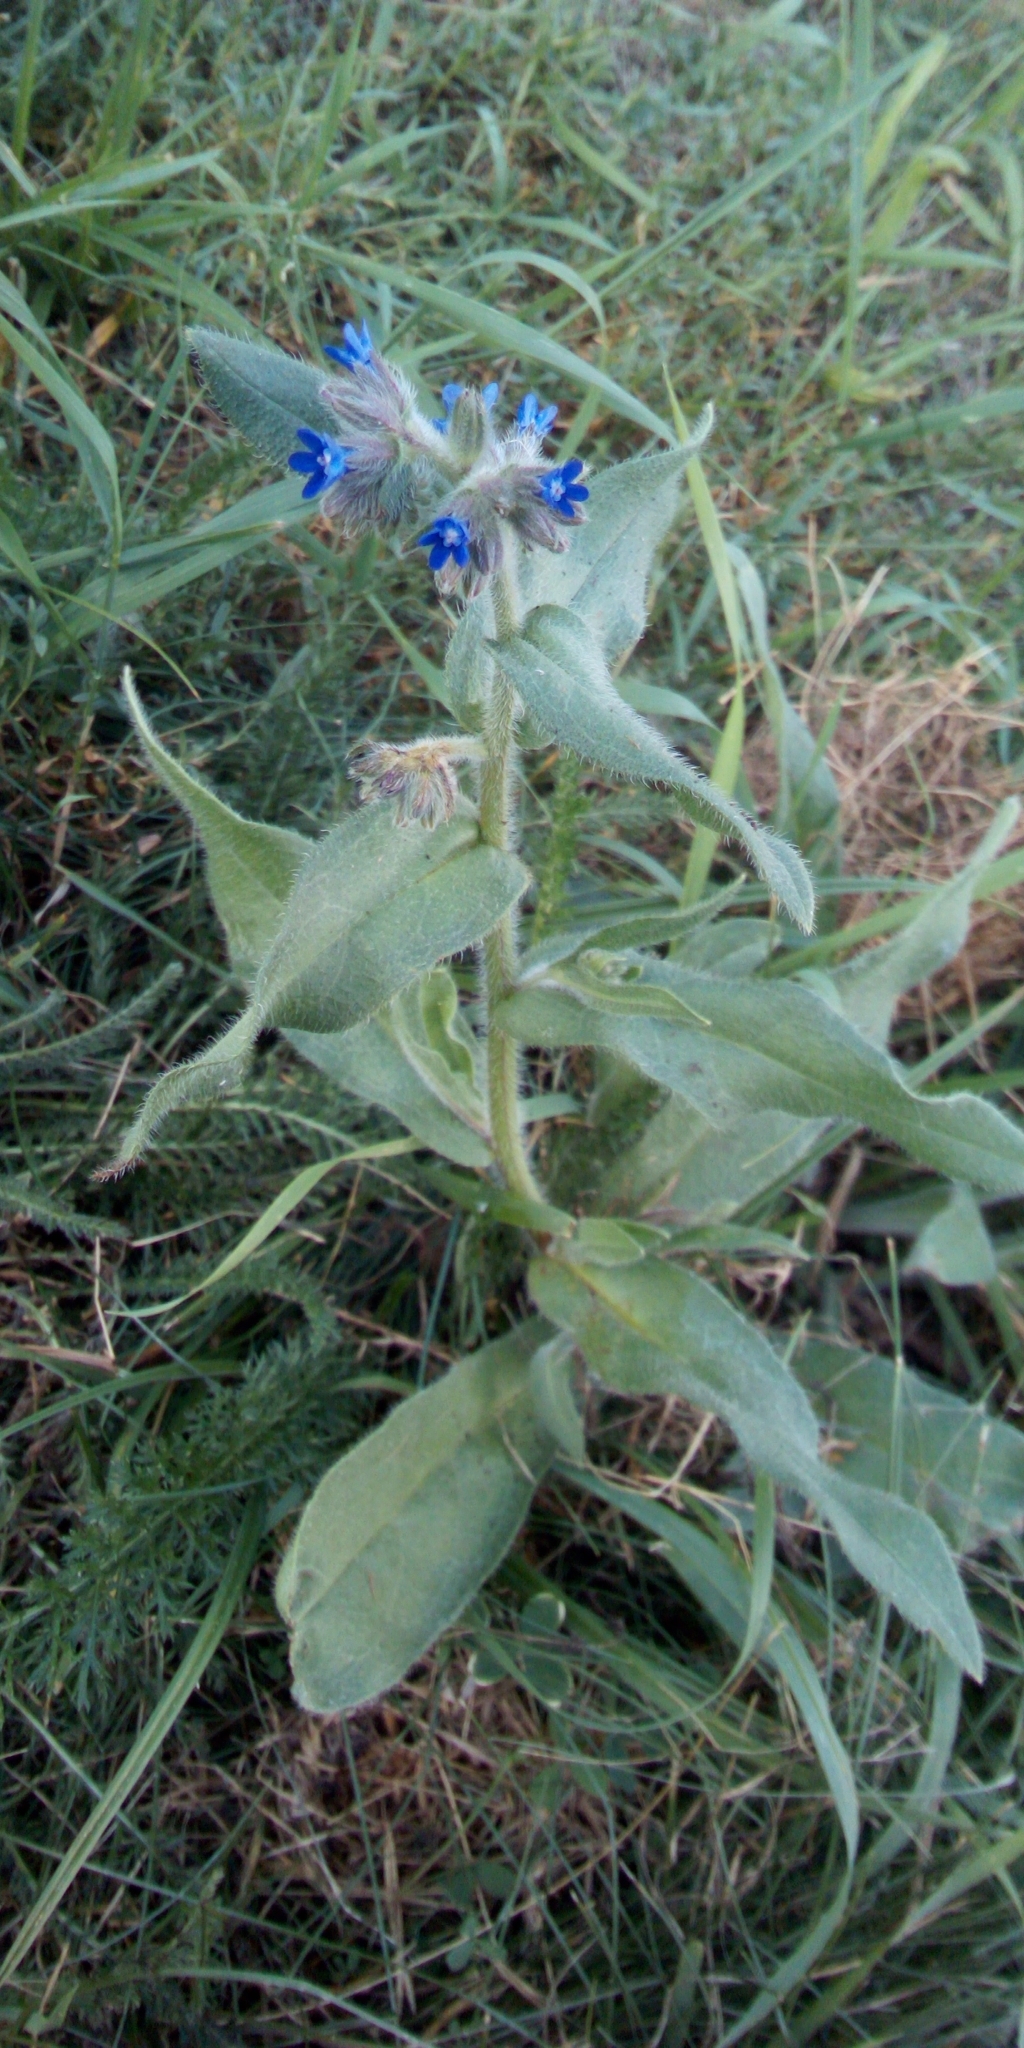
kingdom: Plantae
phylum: Tracheophyta
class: Magnoliopsida
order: Boraginales
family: Boraginaceae
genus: Anchusa
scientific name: Anchusa officinalis
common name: Alkanet
